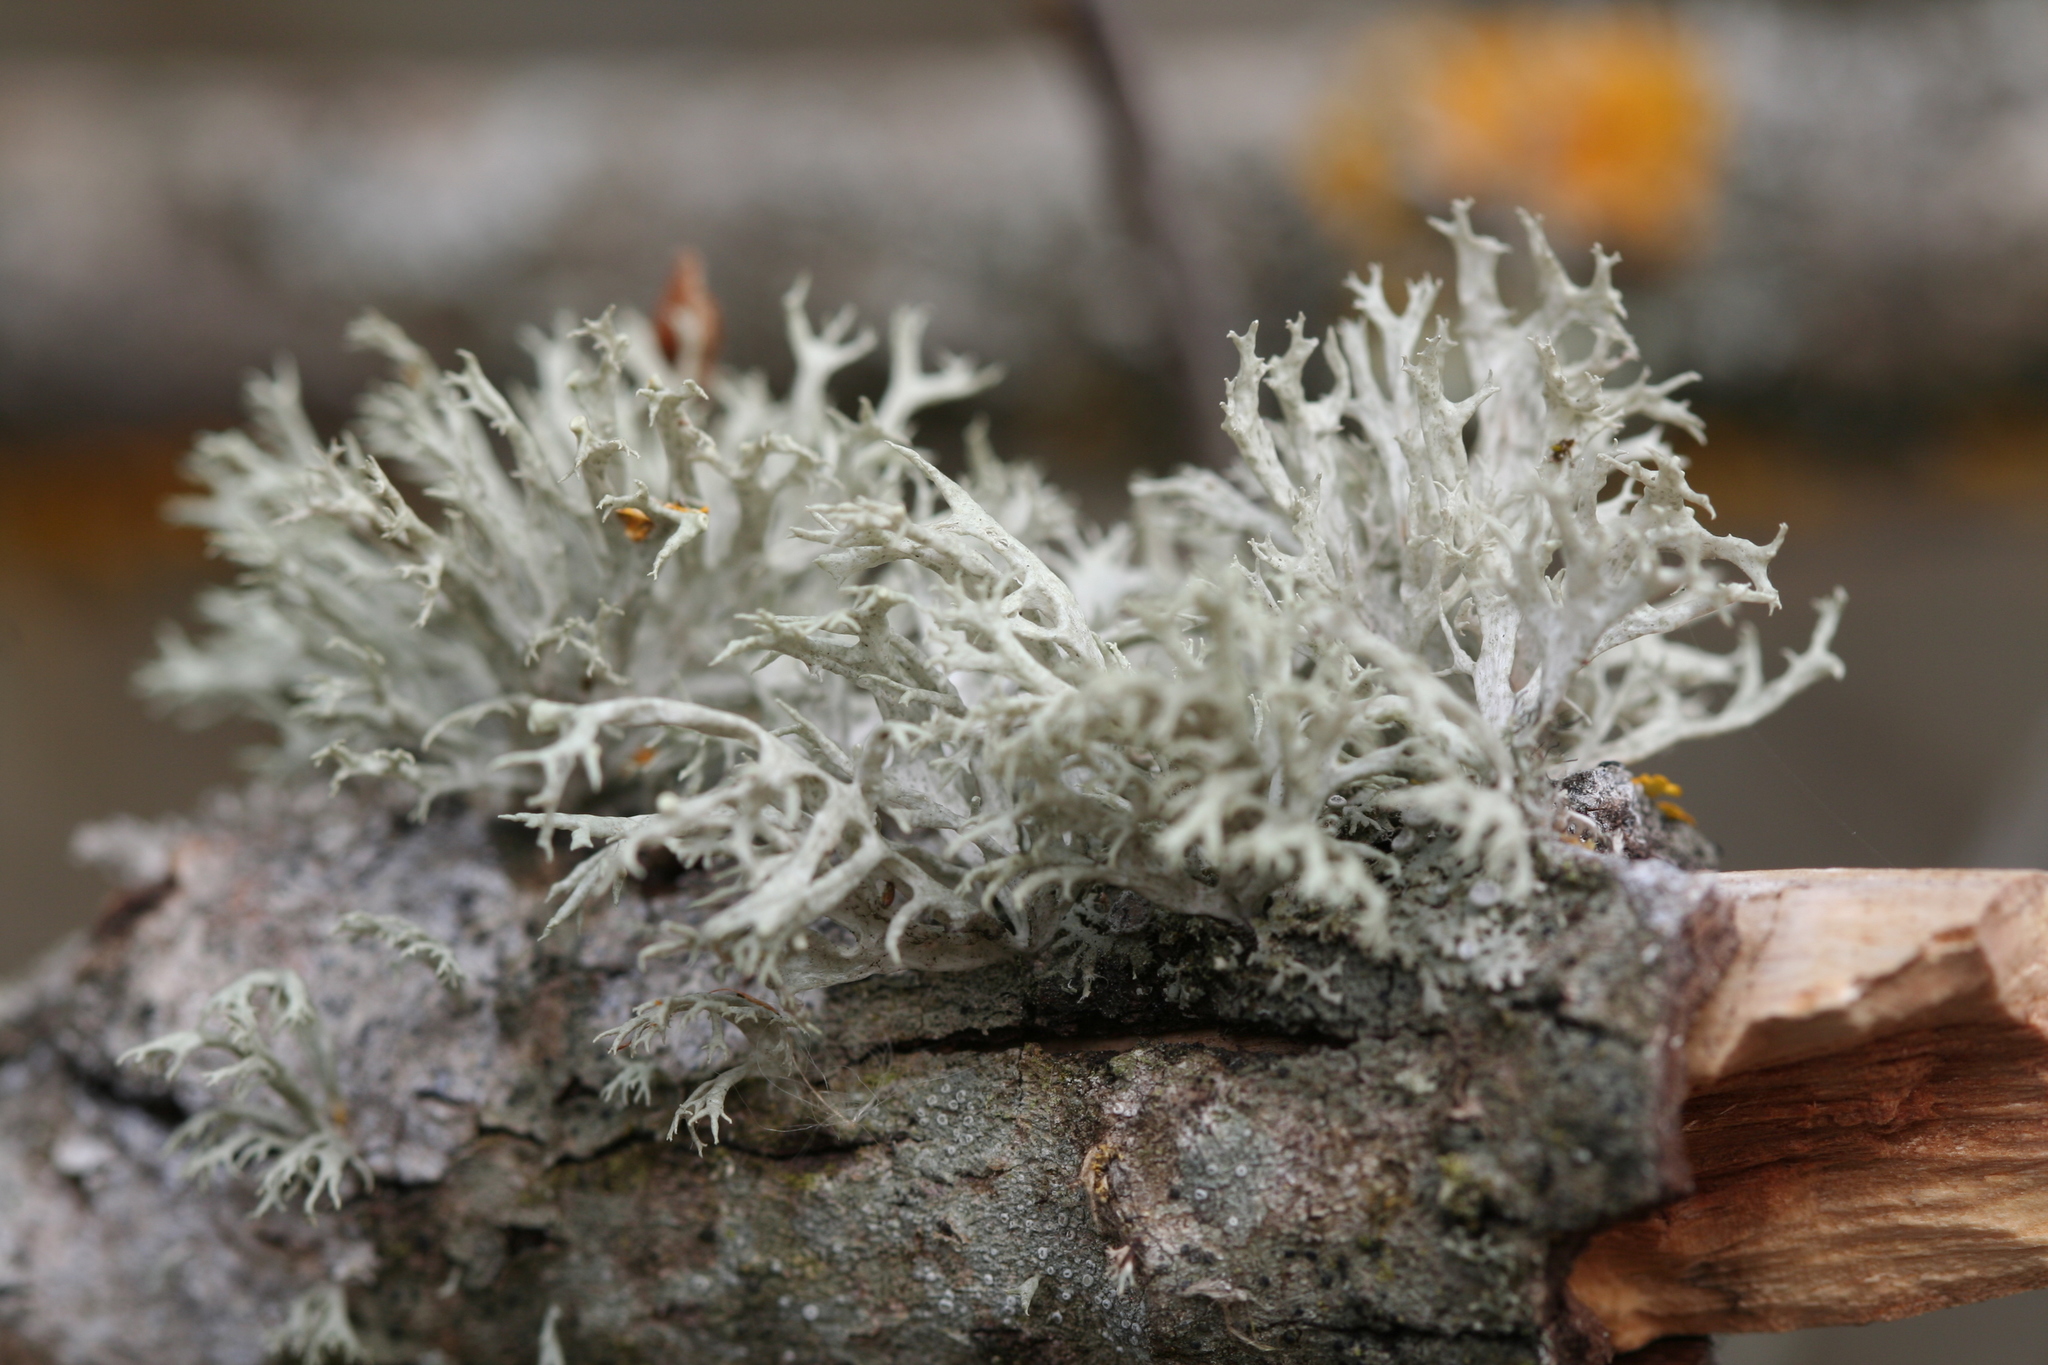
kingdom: Fungi
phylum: Ascomycota
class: Lecanoromycetes
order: Lecanorales
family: Ramalinaceae
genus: Ramalina
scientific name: Ramalina fastigiata
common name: Dotted ribbon lichen
